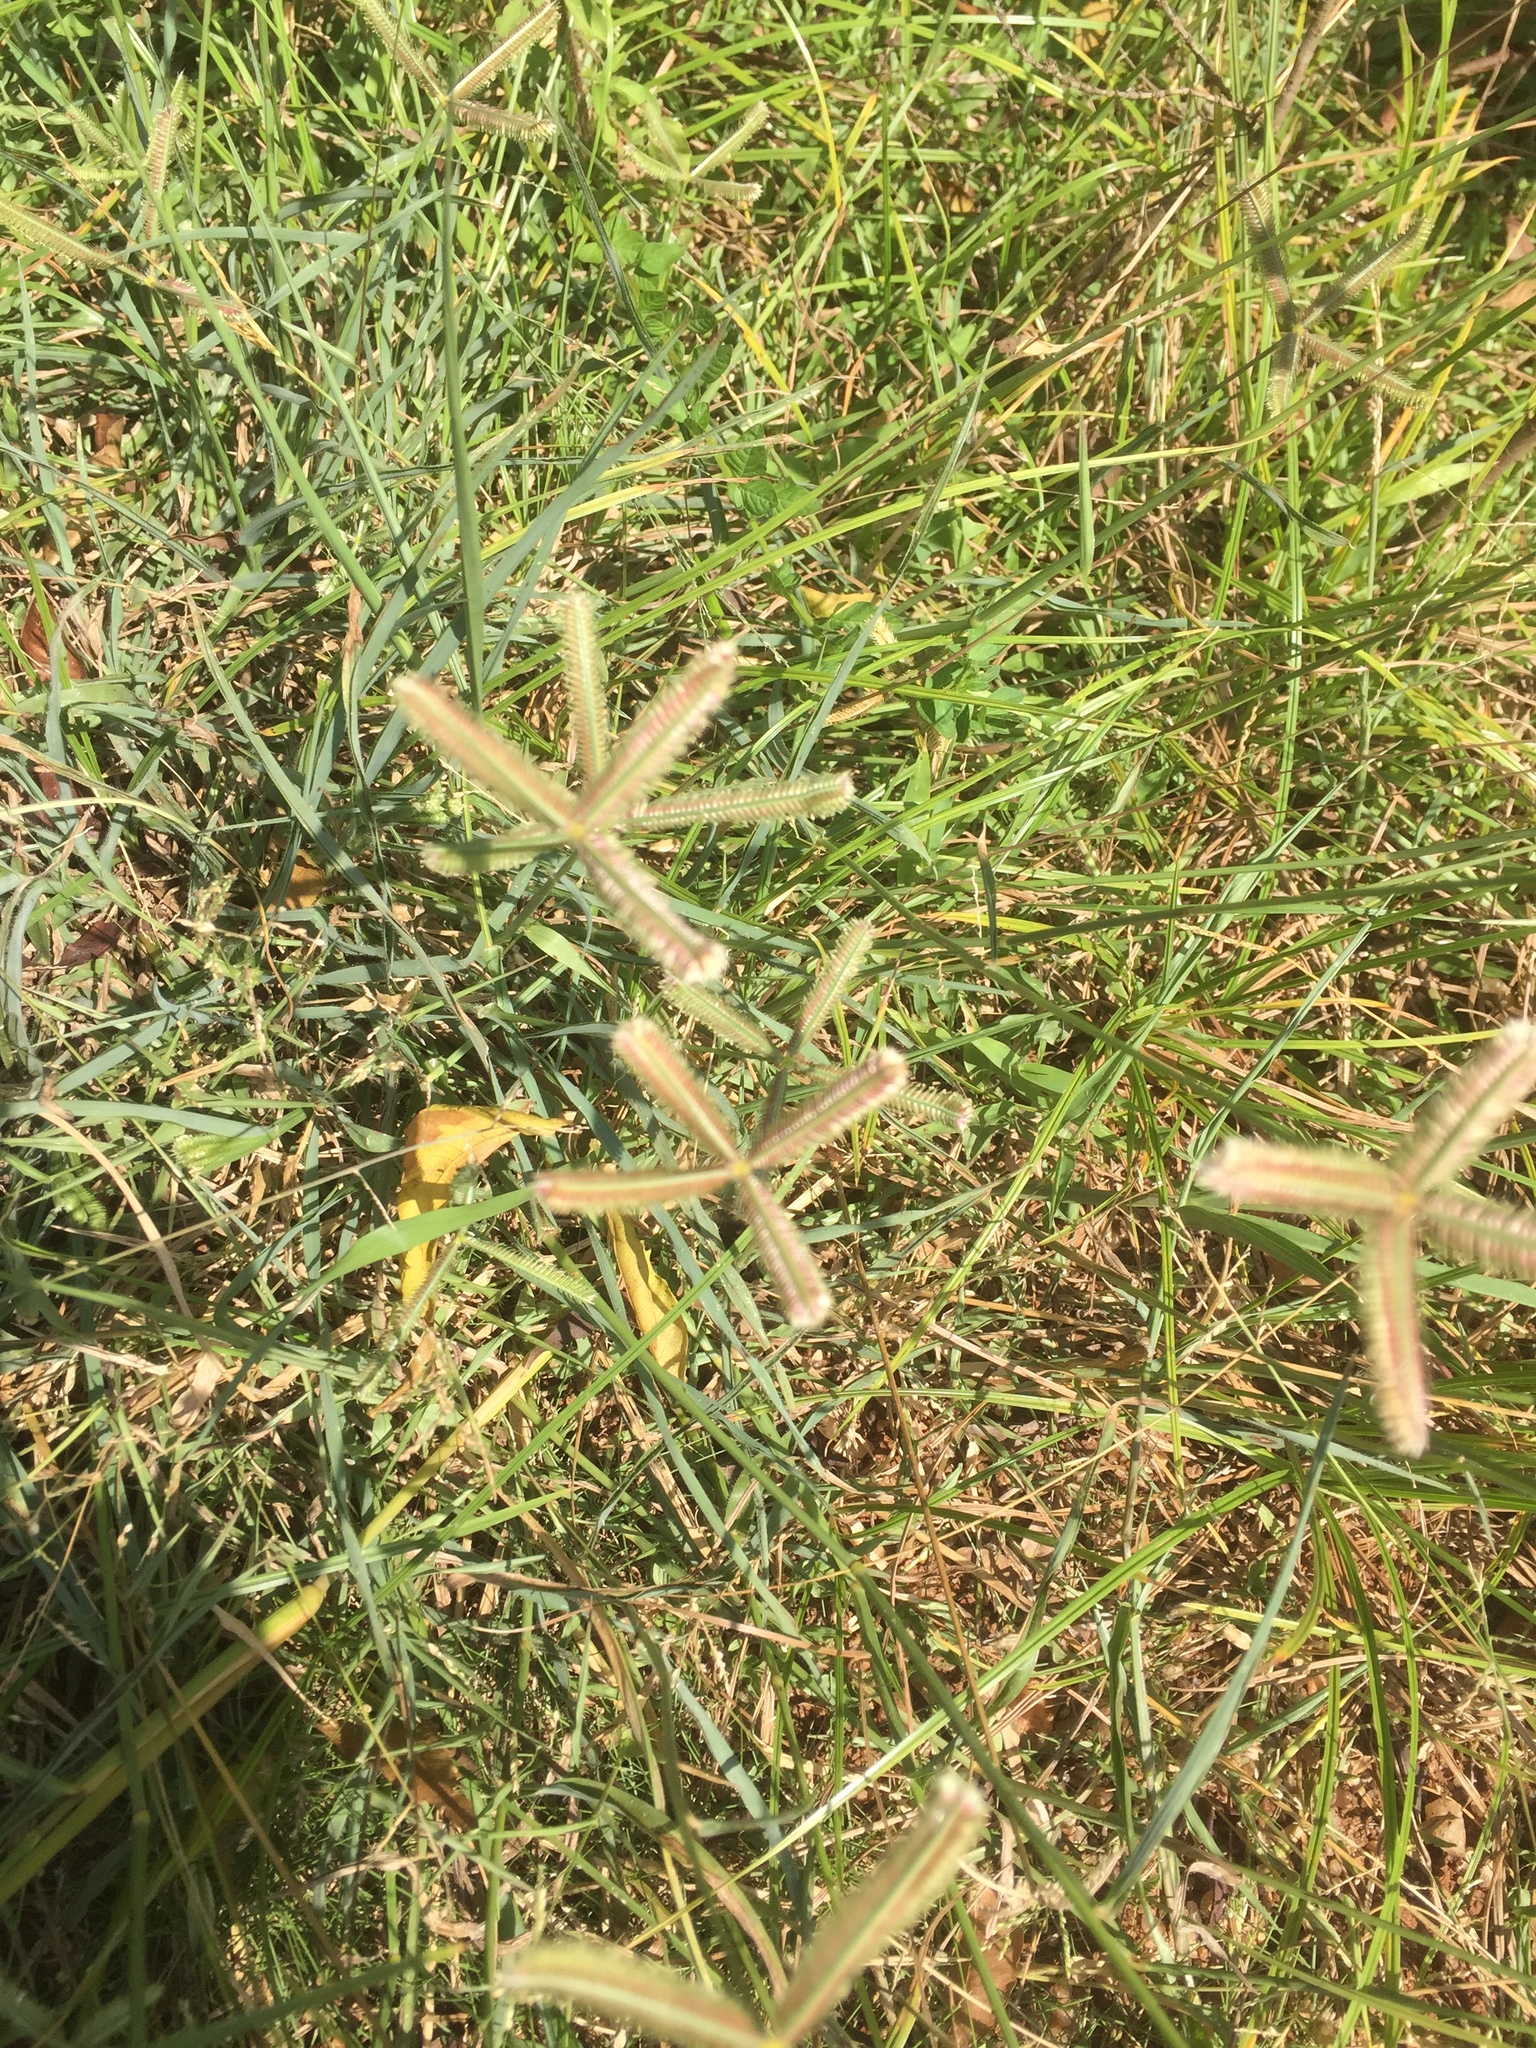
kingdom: Plantae
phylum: Tracheophyta
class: Liliopsida
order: Poales
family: Poaceae
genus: Dactyloctenium
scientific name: Dactyloctenium aegyptium
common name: Egyptian grass
